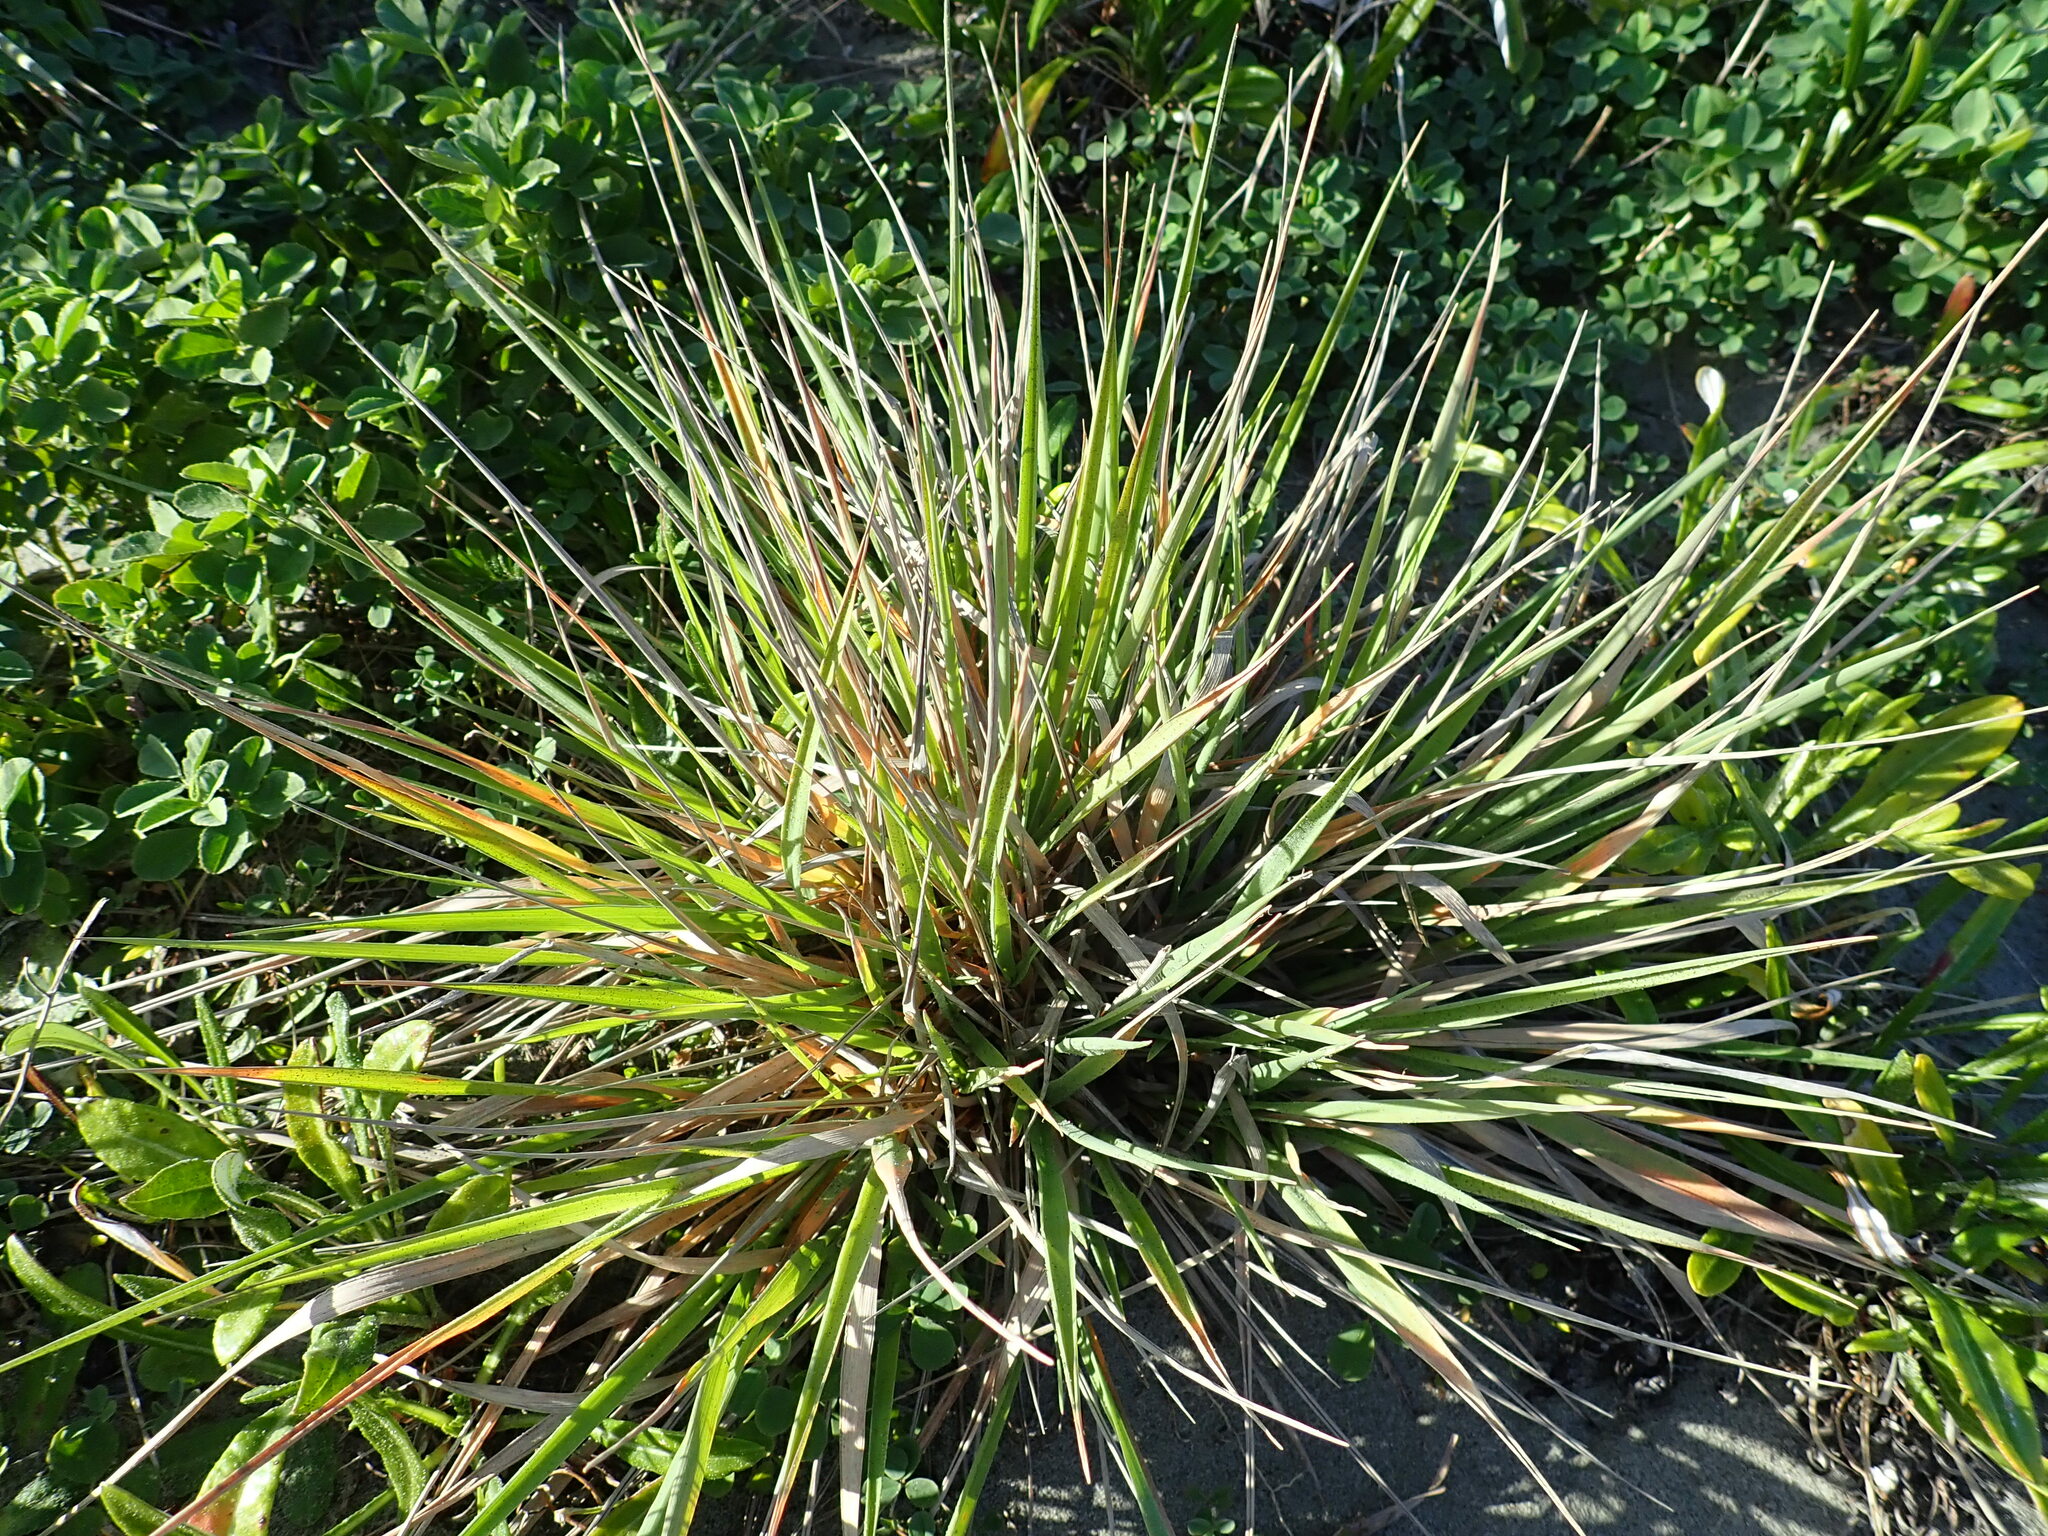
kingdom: Plantae
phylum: Tracheophyta
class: Liliopsida
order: Poales
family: Poaceae
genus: Lachnagrostis
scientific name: Lachnagrostis billardierei
